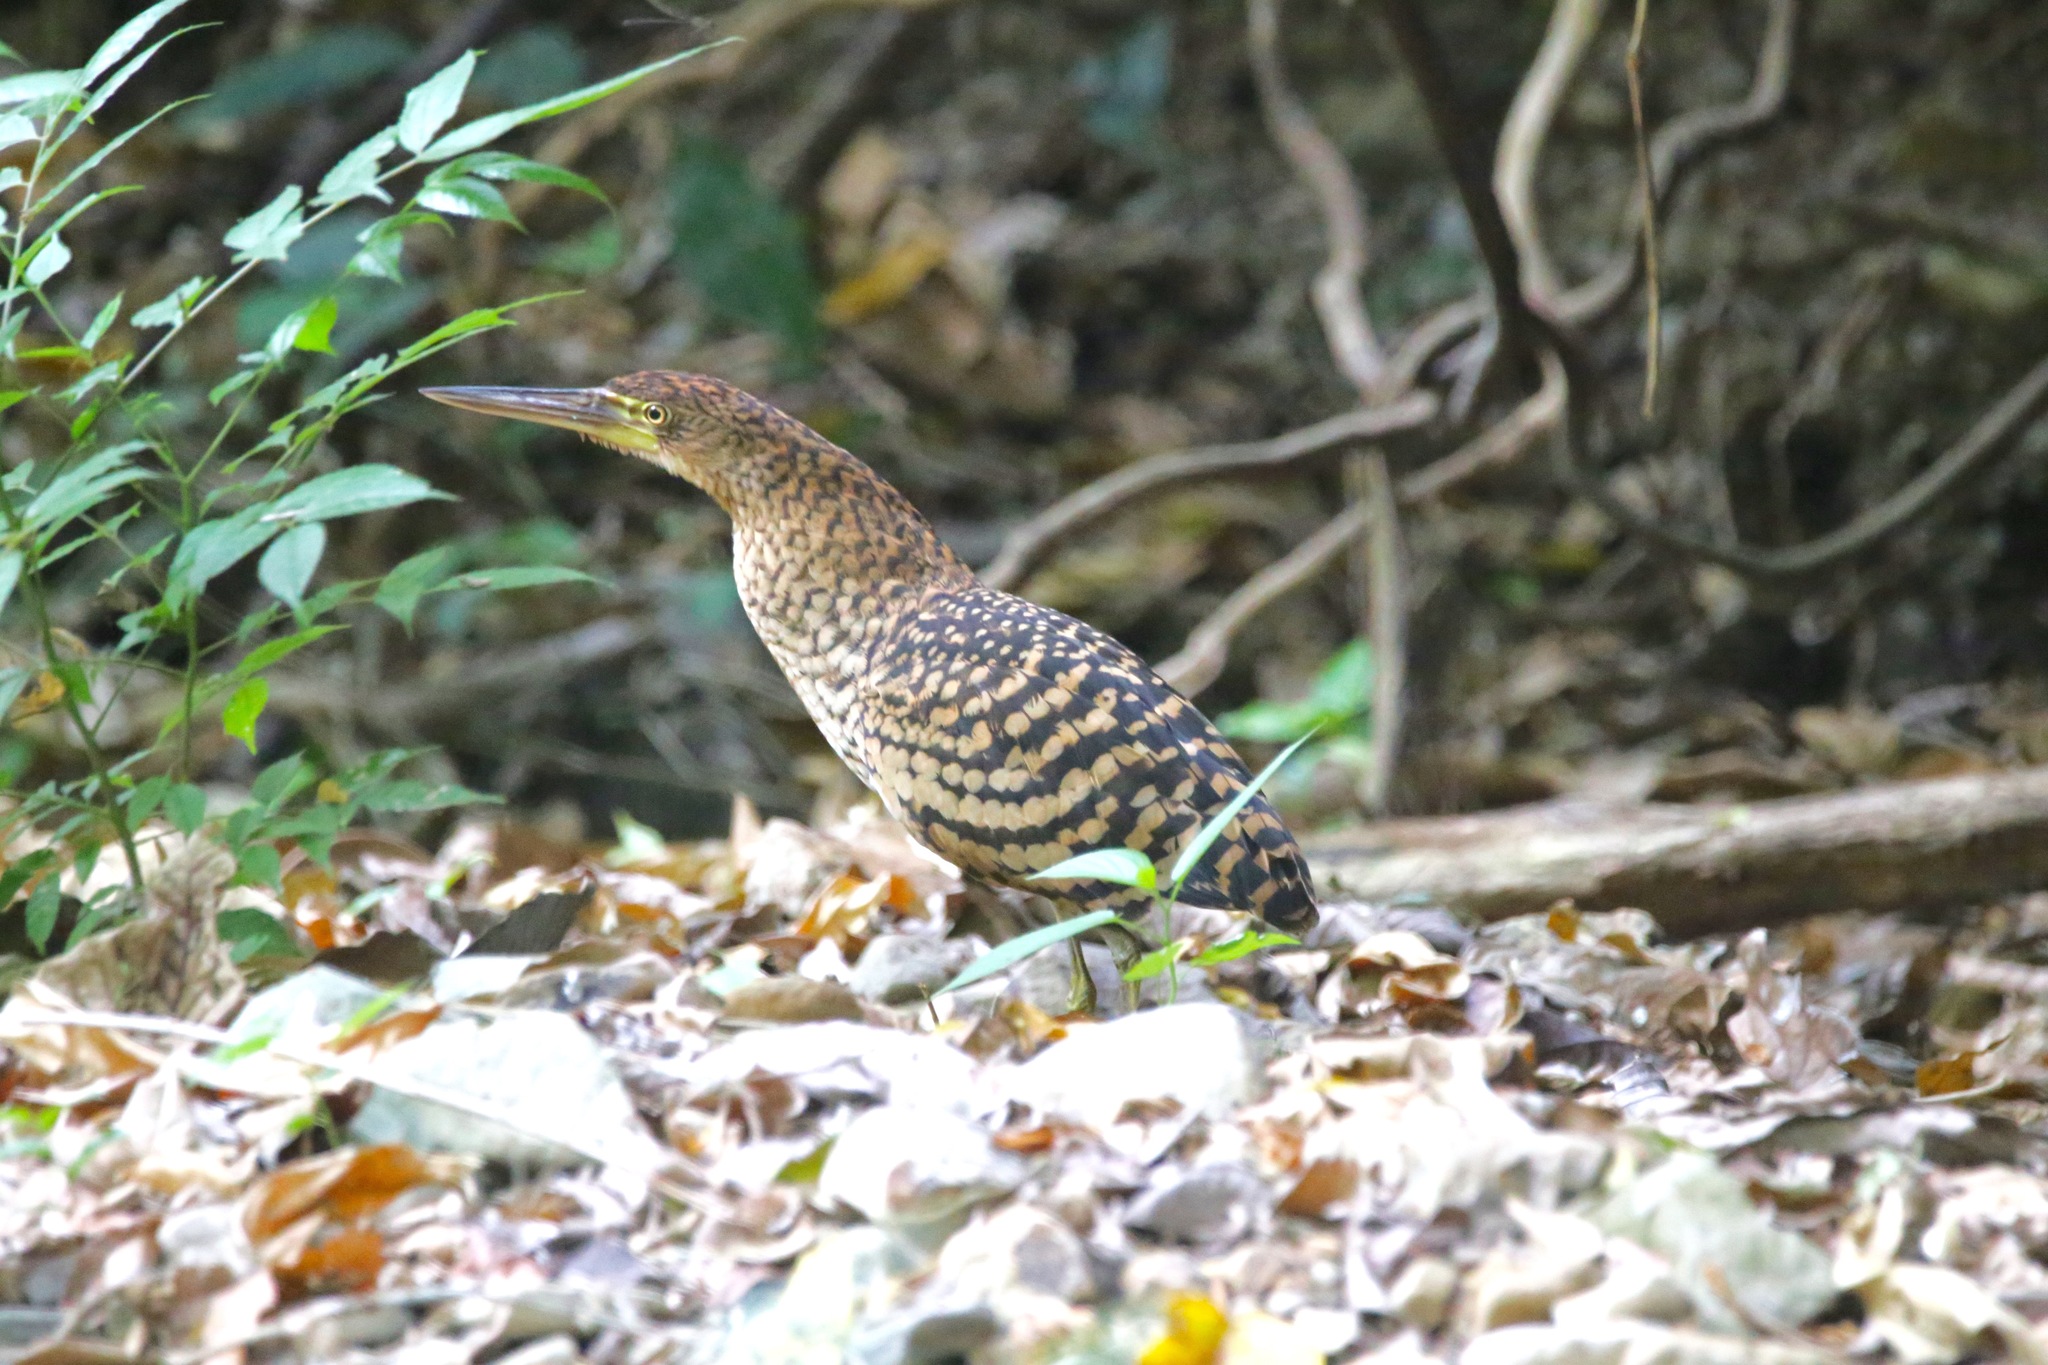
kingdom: Animalia
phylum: Chordata
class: Aves
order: Pelecaniformes
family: Ardeidae
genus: Tigrisoma
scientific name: Tigrisoma fasciatum
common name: Fasciated tiger-heron
